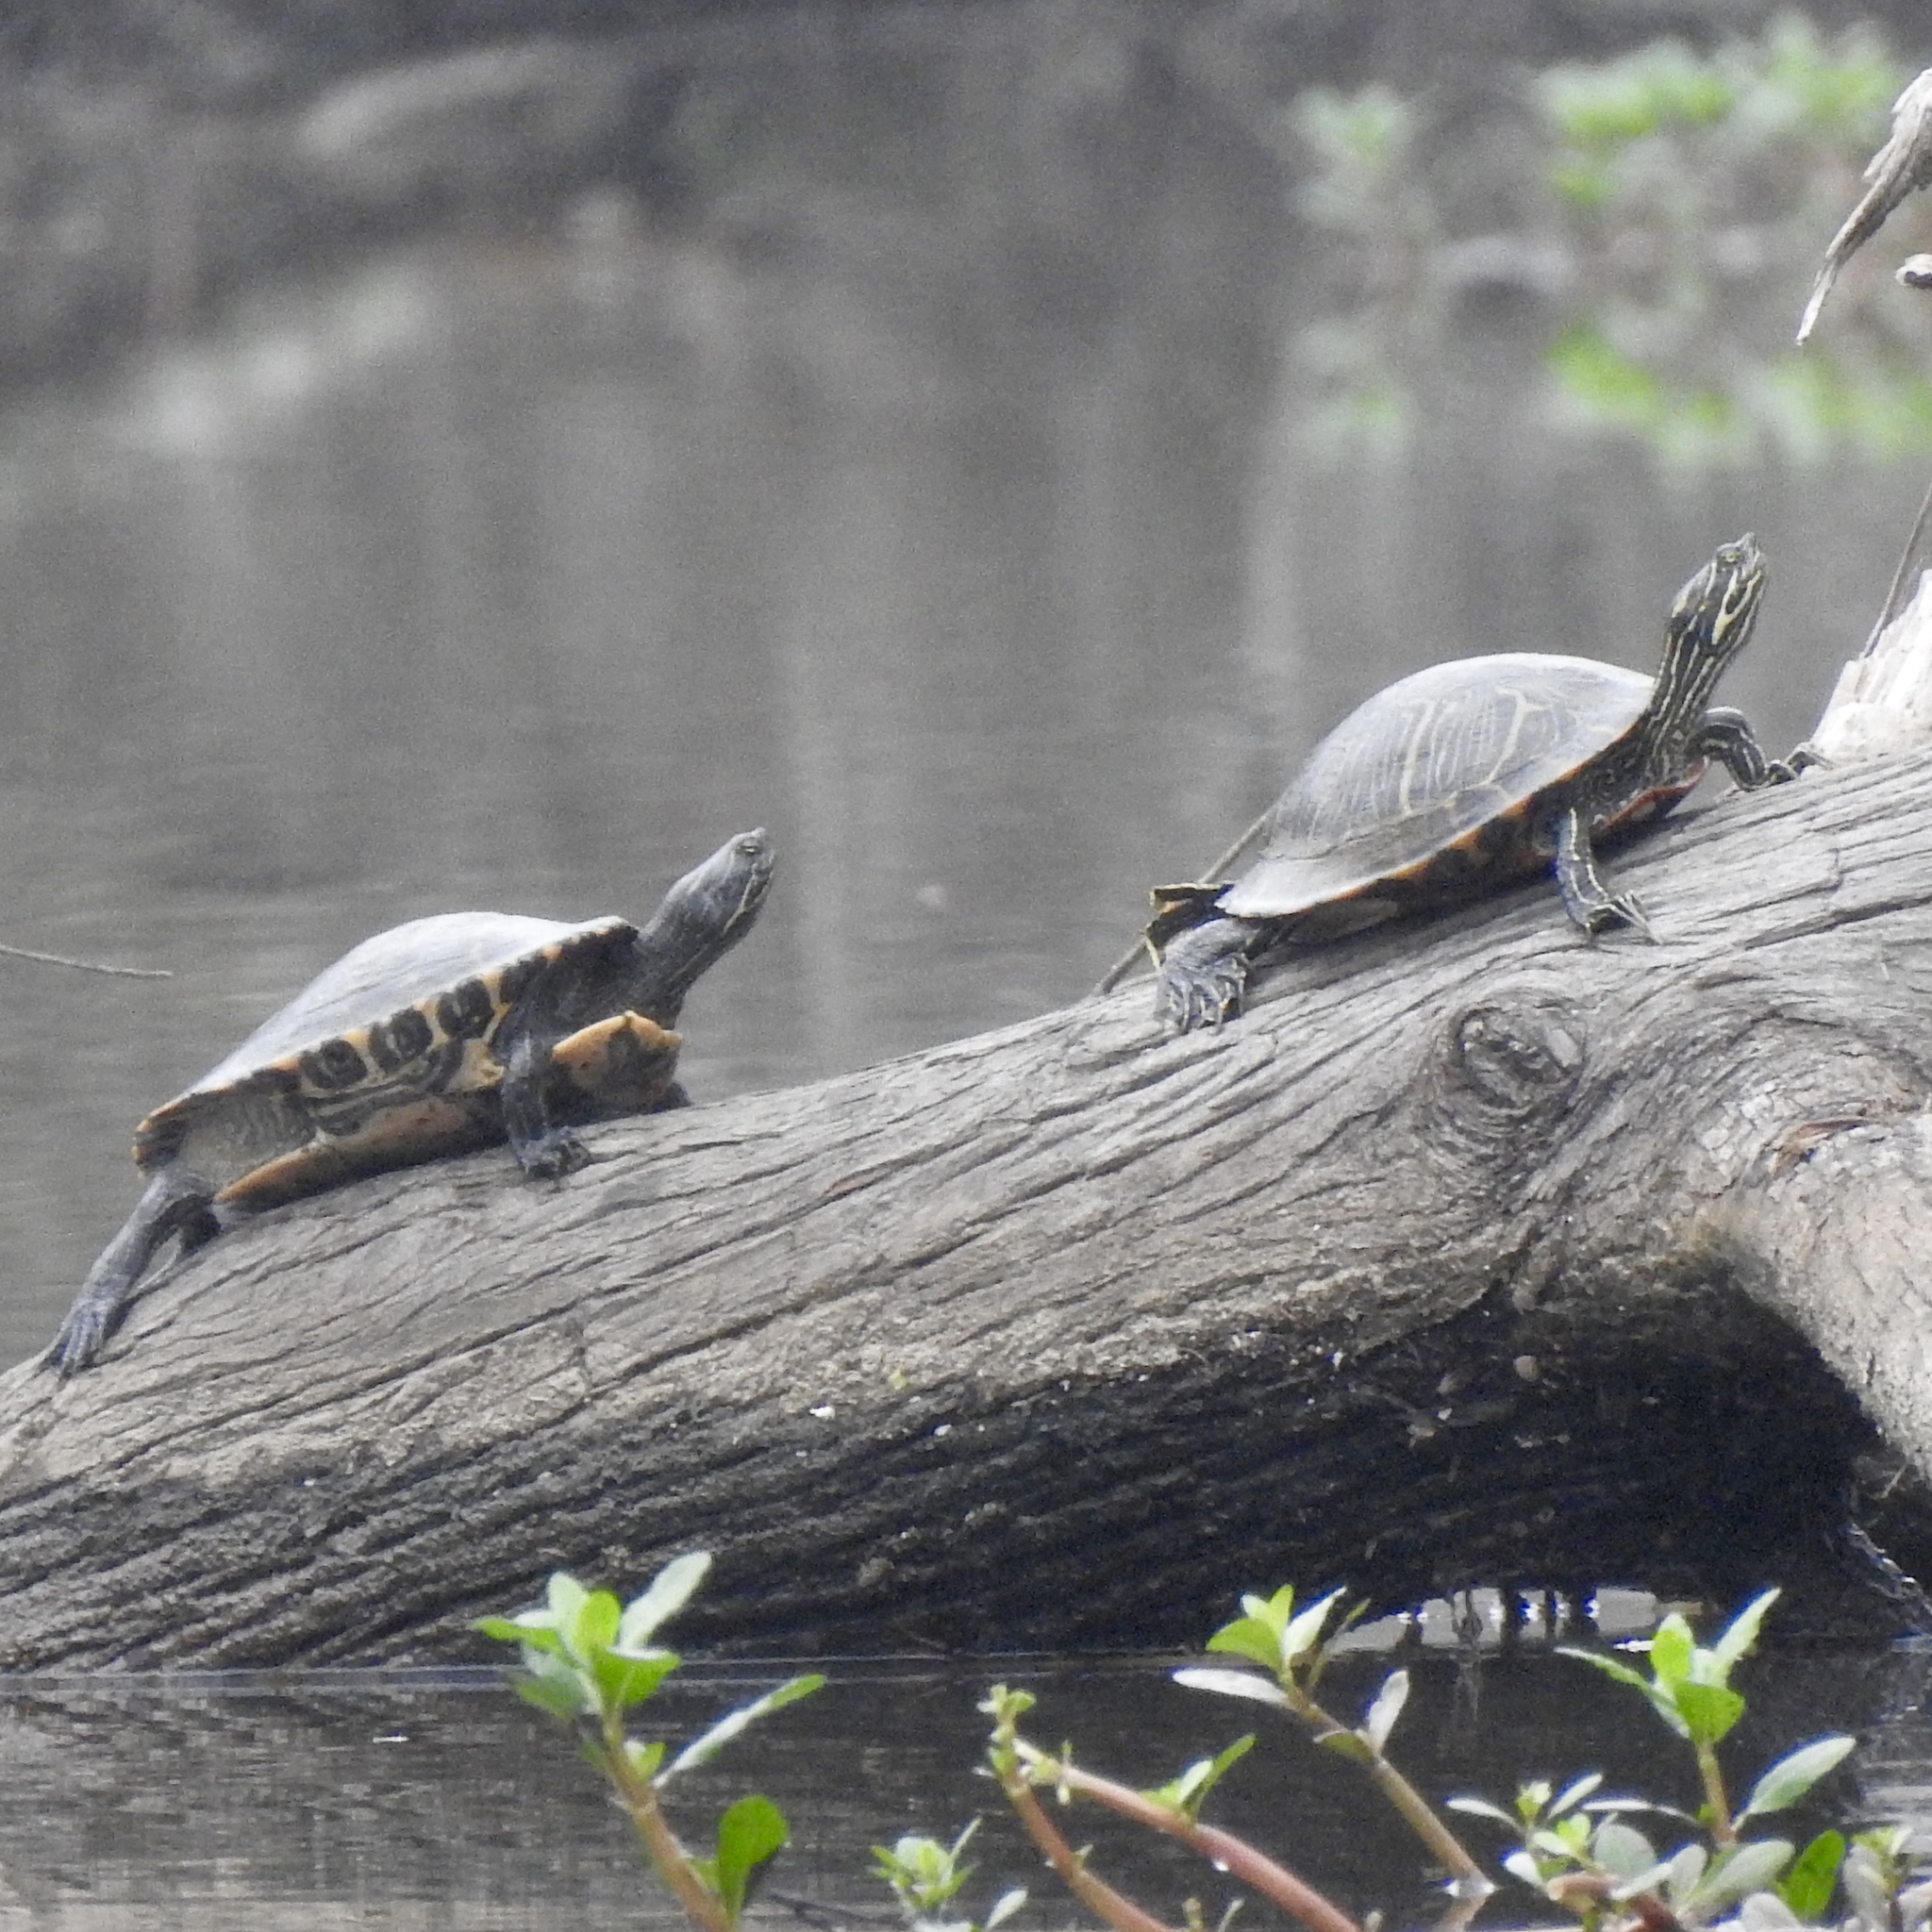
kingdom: Animalia
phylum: Chordata
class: Testudines
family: Emydidae
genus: Pseudemys
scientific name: Pseudemys concinna
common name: Eastern river cooter
